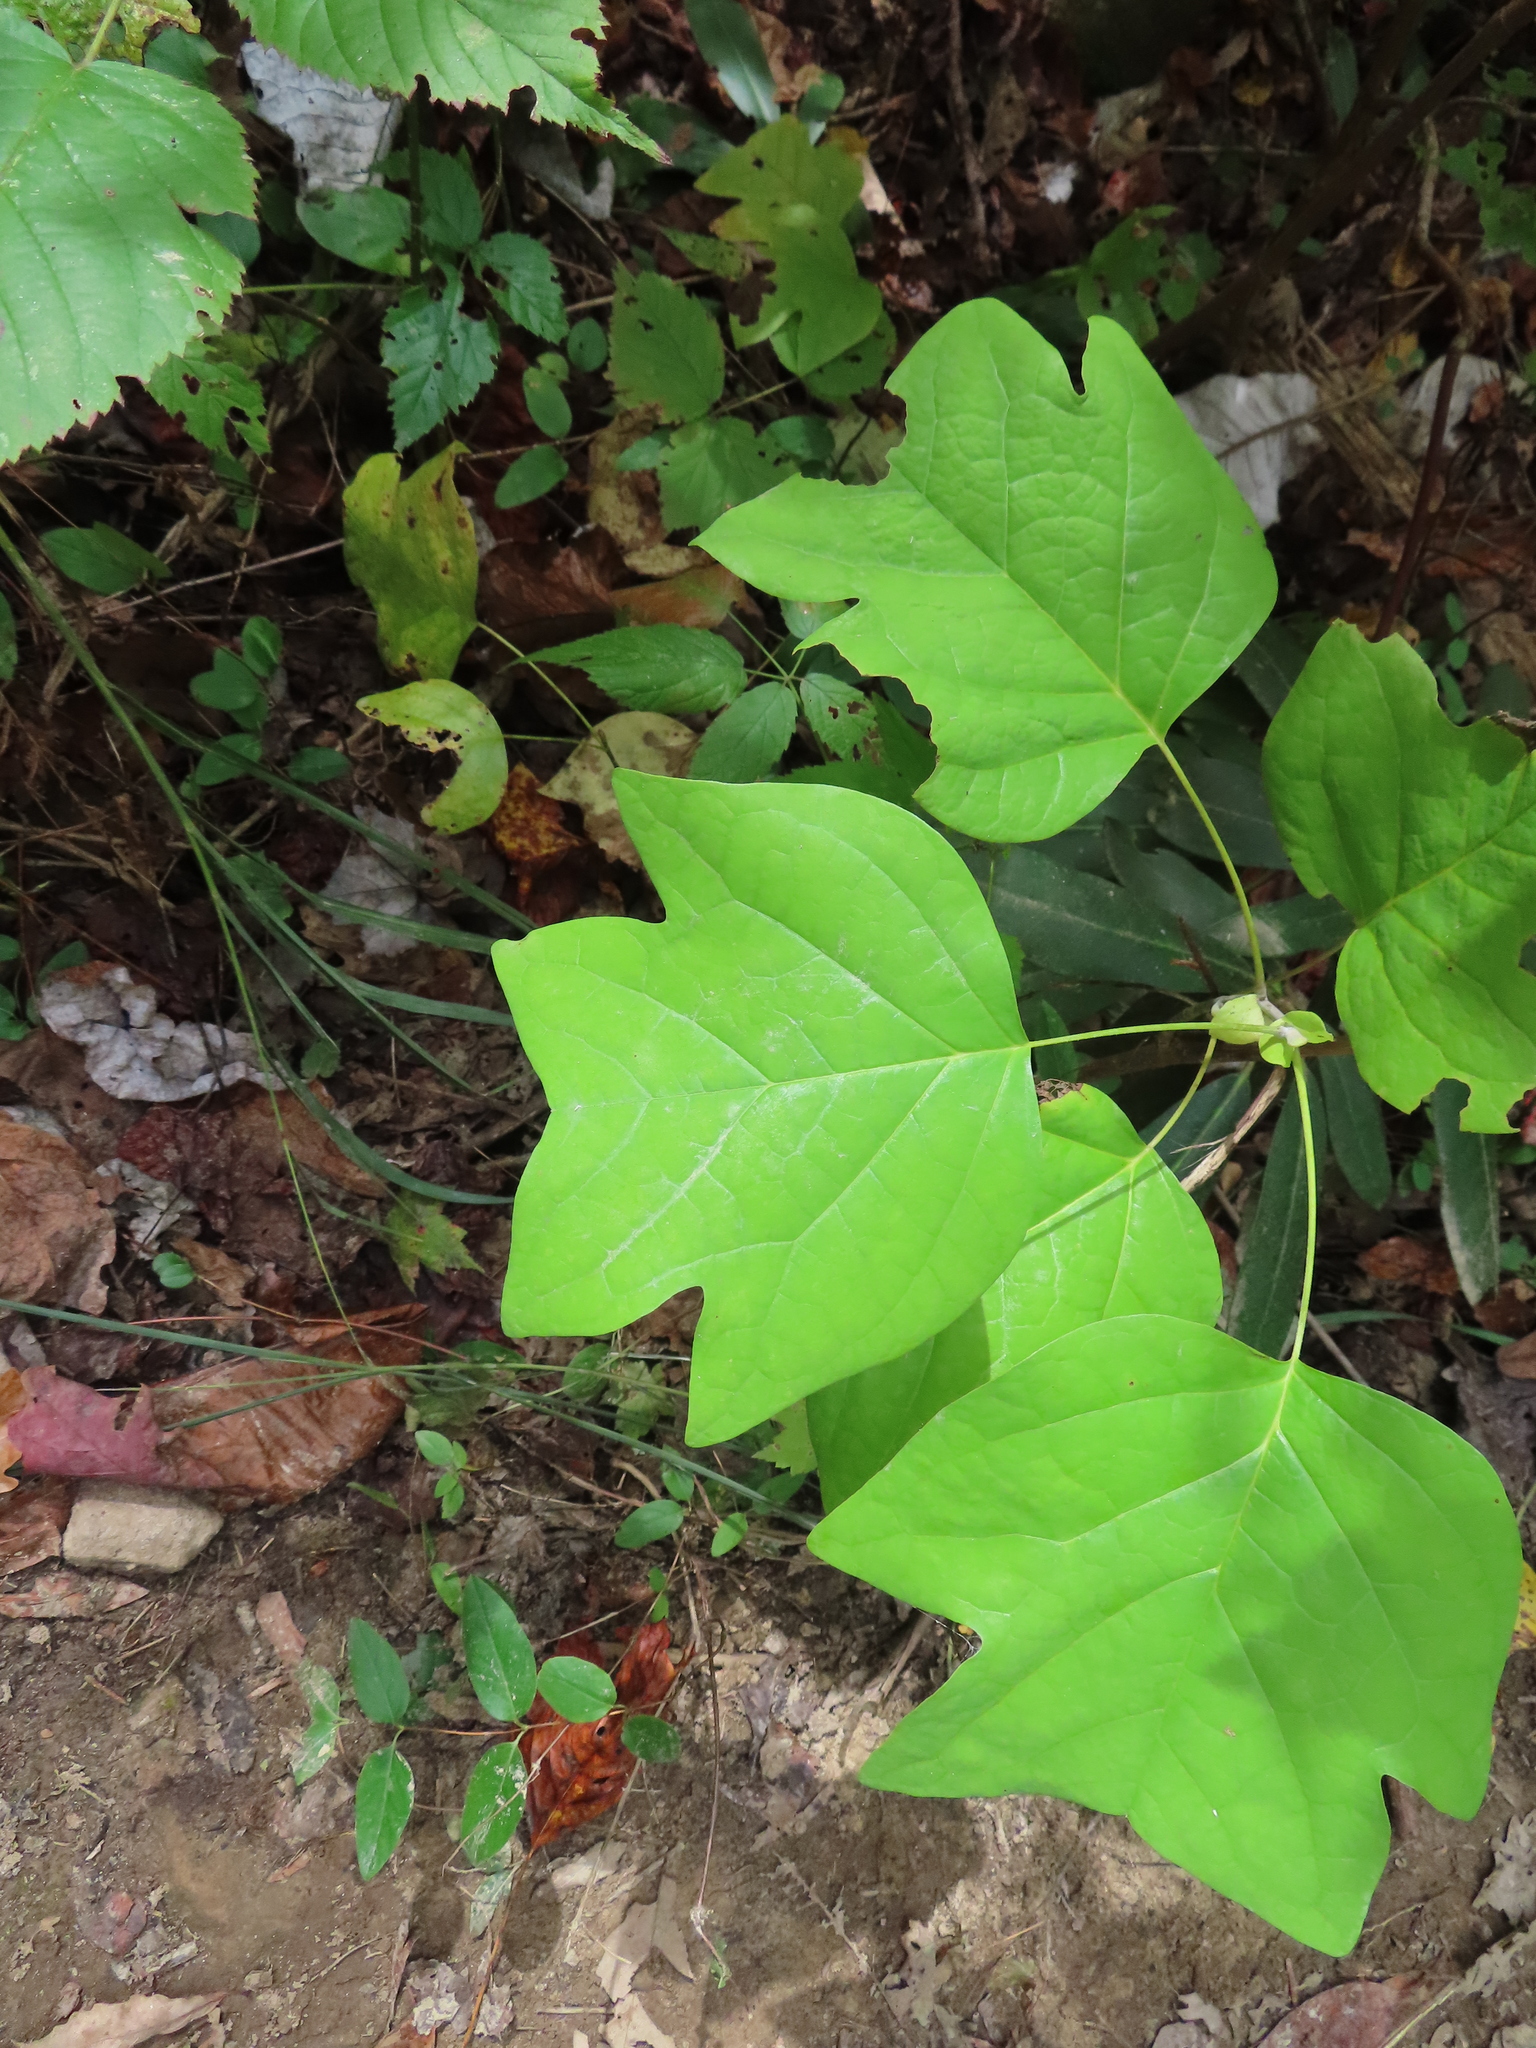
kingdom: Plantae
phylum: Tracheophyta
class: Magnoliopsida
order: Magnoliales
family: Magnoliaceae
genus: Liriodendron
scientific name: Liriodendron tulipifera
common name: Tulip tree
